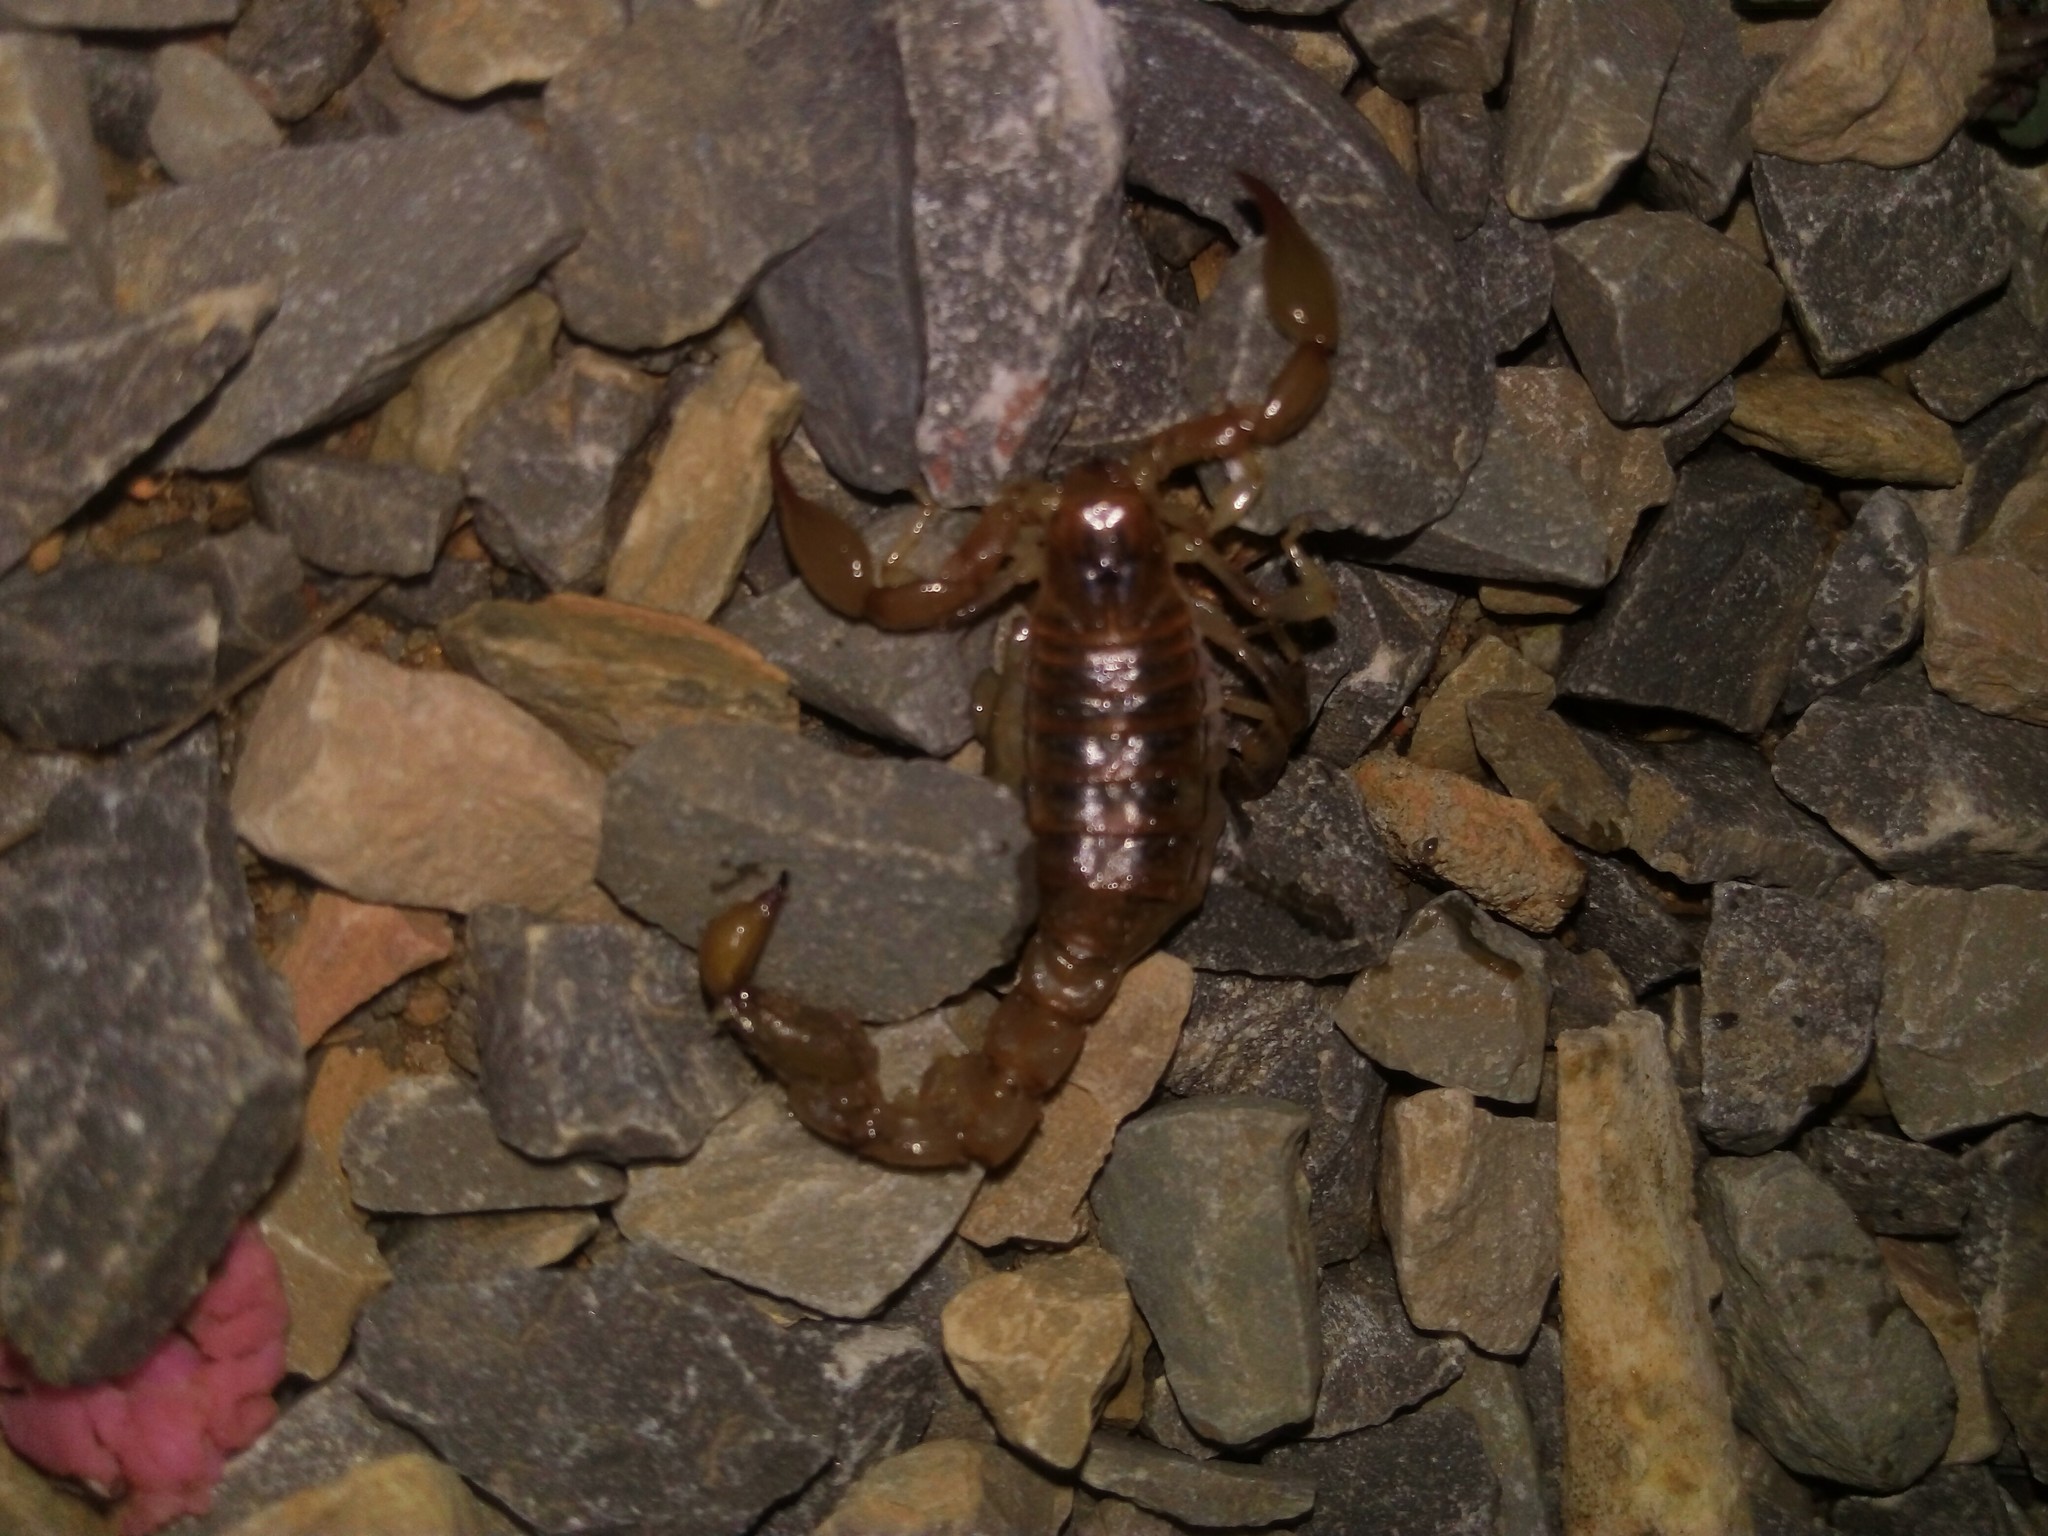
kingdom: Animalia
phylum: Arthropoda
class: Arachnida
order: Scorpiones
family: Bothriuridae
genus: Bothriurus
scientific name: Bothriurus rochai
